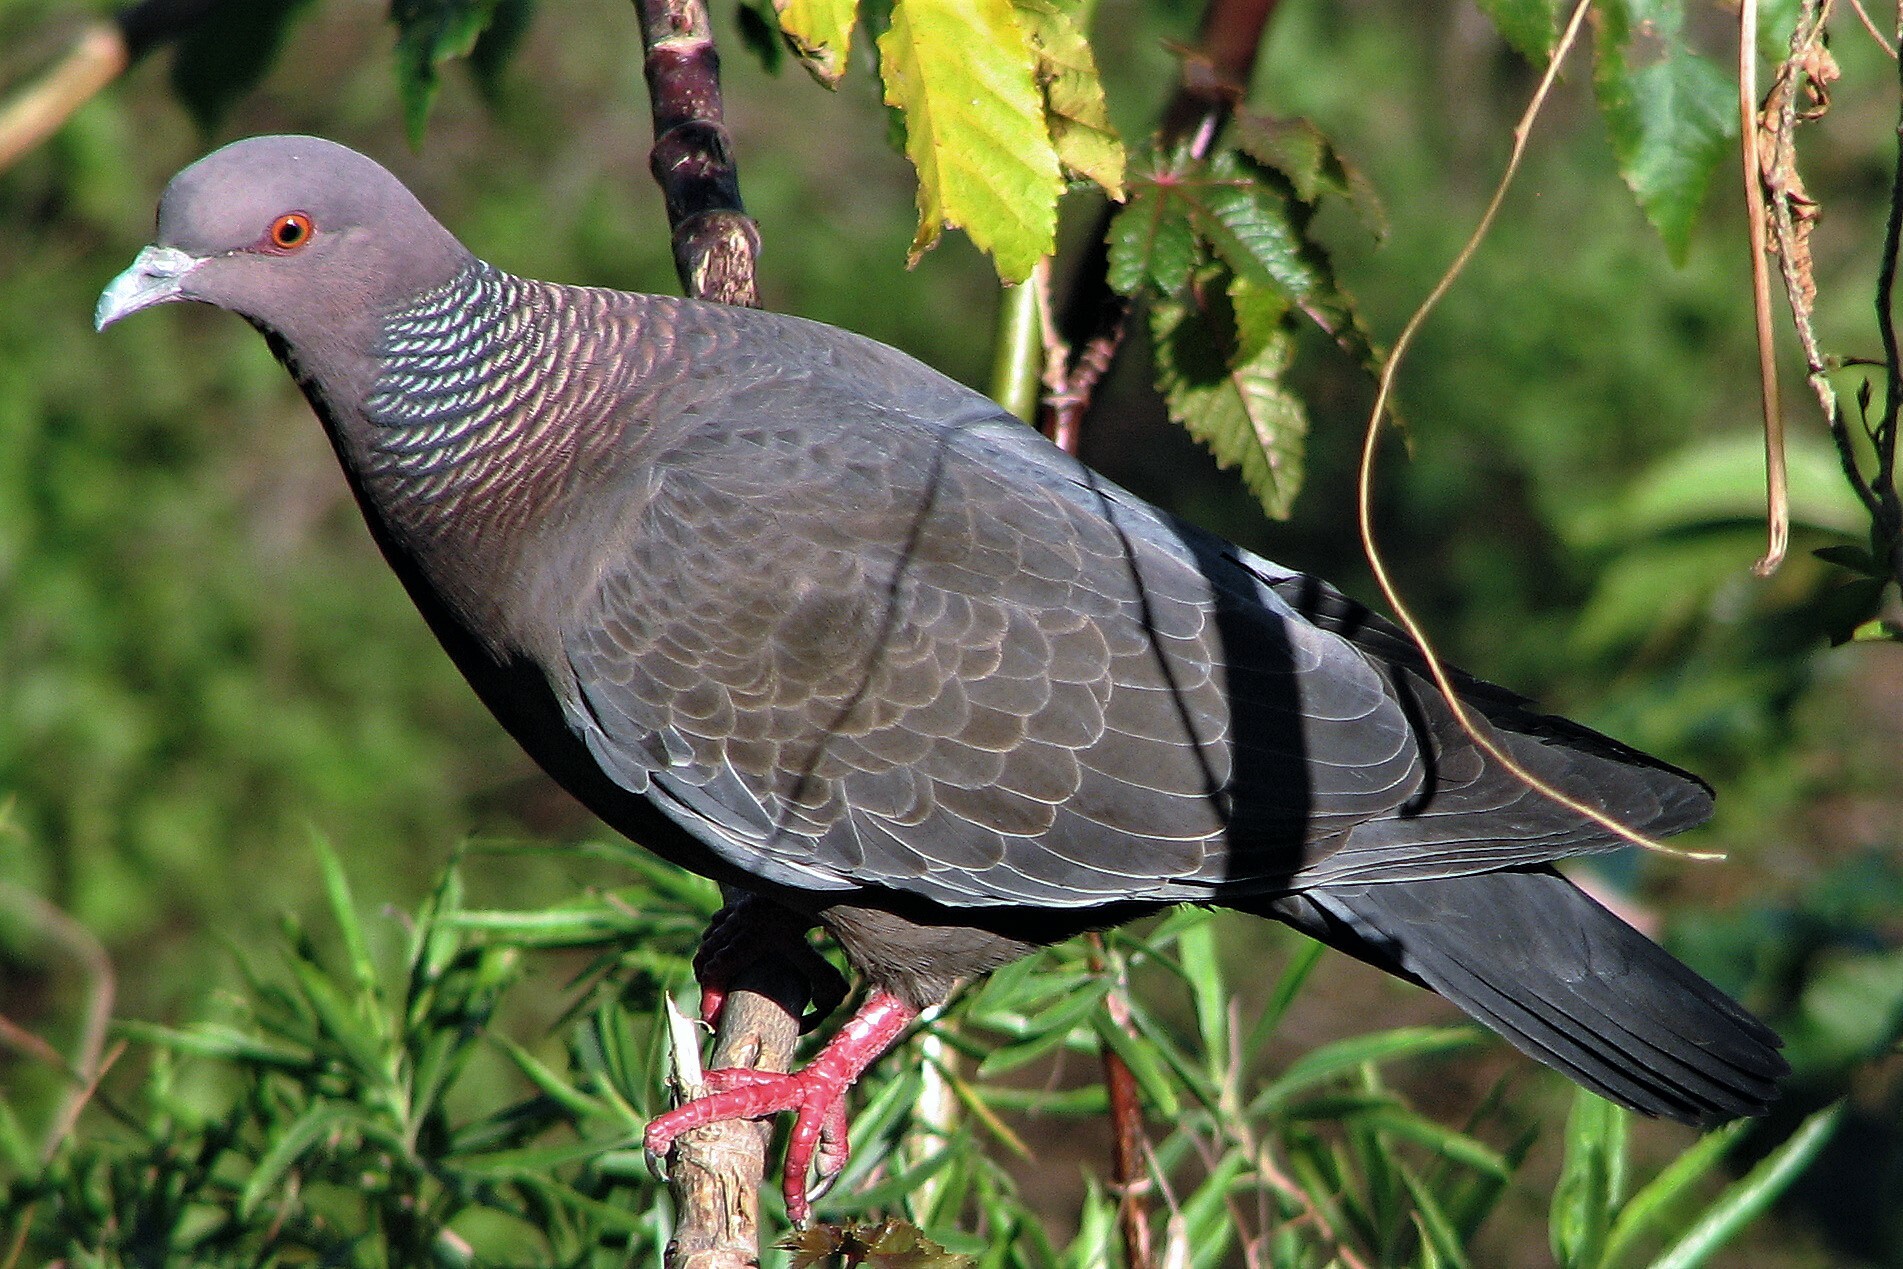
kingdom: Animalia
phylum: Chordata
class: Aves
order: Columbiformes
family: Columbidae
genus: Patagioenas
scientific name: Patagioenas picazuro
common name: Picazuro pigeon
